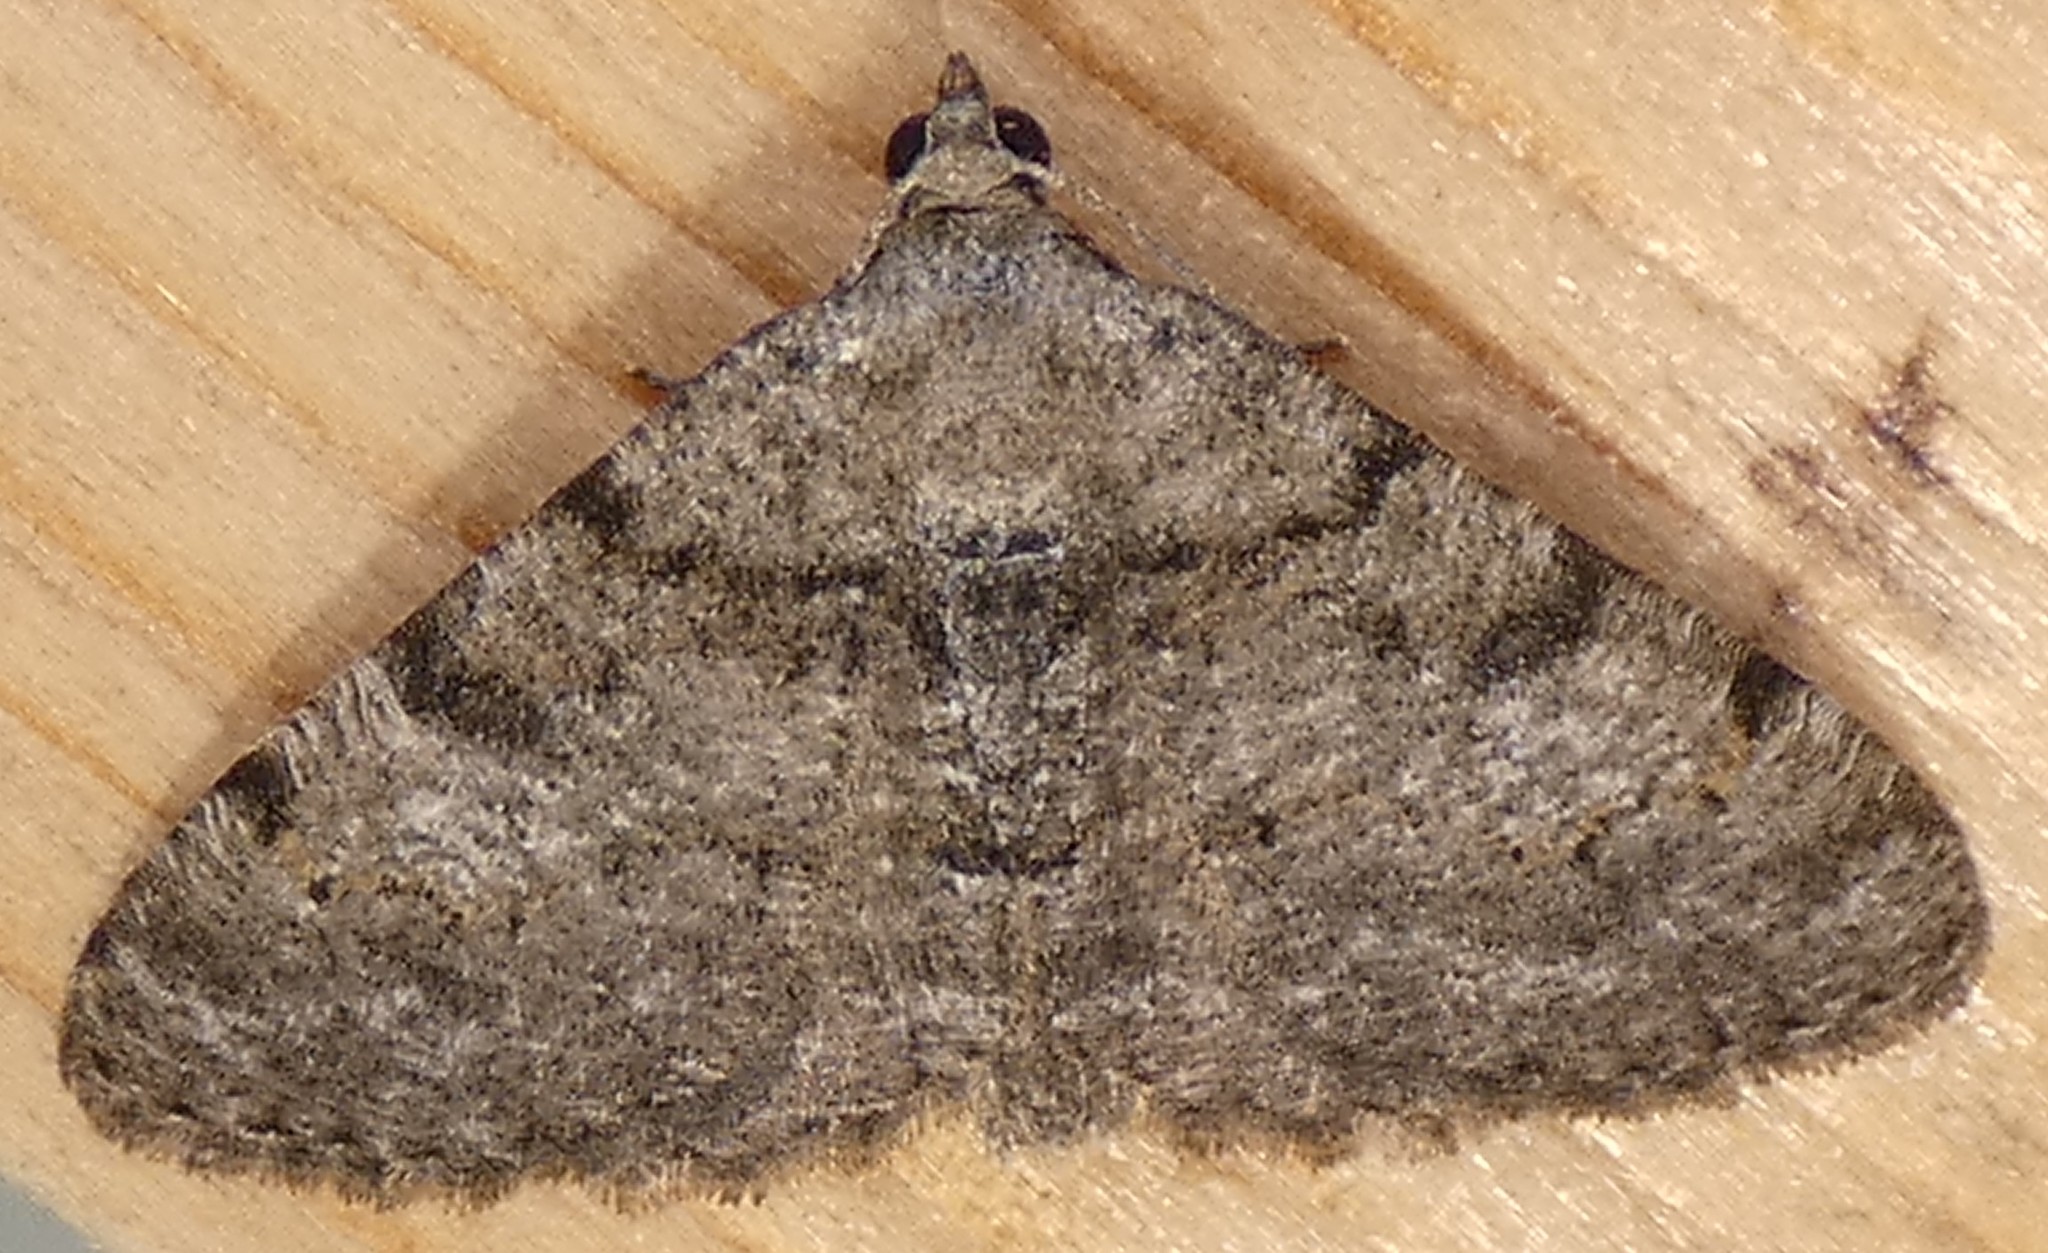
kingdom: Animalia
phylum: Arthropoda
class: Insecta
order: Lepidoptera
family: Geometridae
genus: Digrammia
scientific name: Digrammia gnophosaria
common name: Hollow-spotted angle
